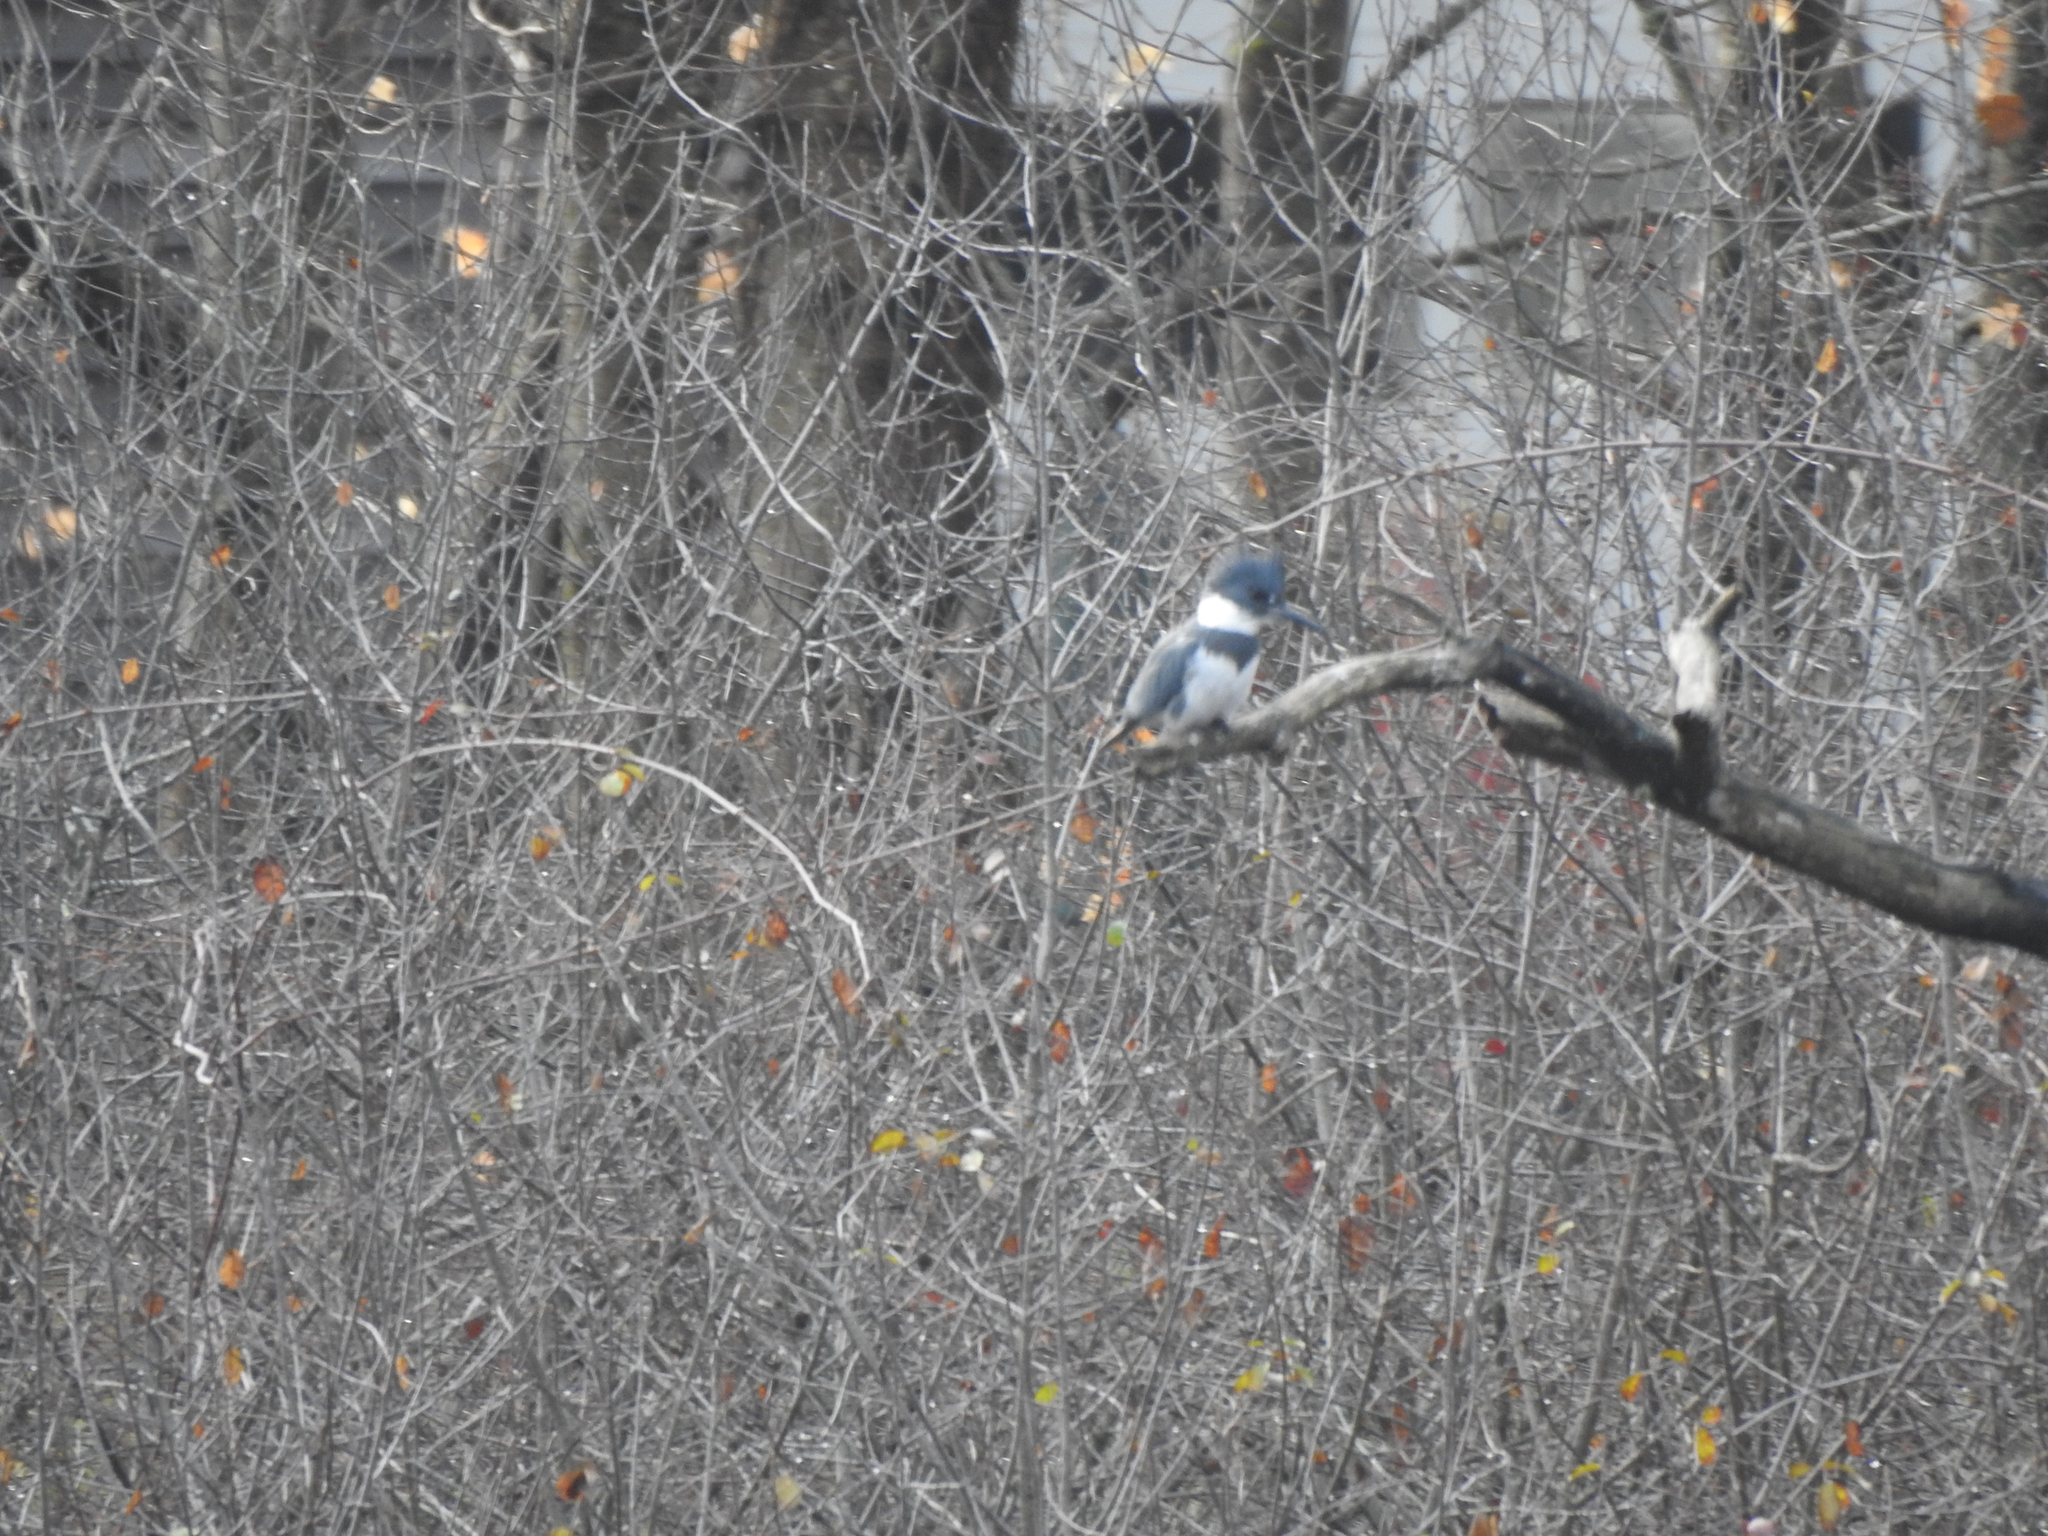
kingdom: Animalia
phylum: Chordata
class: Aves
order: Coraciiformes
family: Alcedinidae
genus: Megaceryle
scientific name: Megaceryle alcyon
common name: Belted kingfisher
